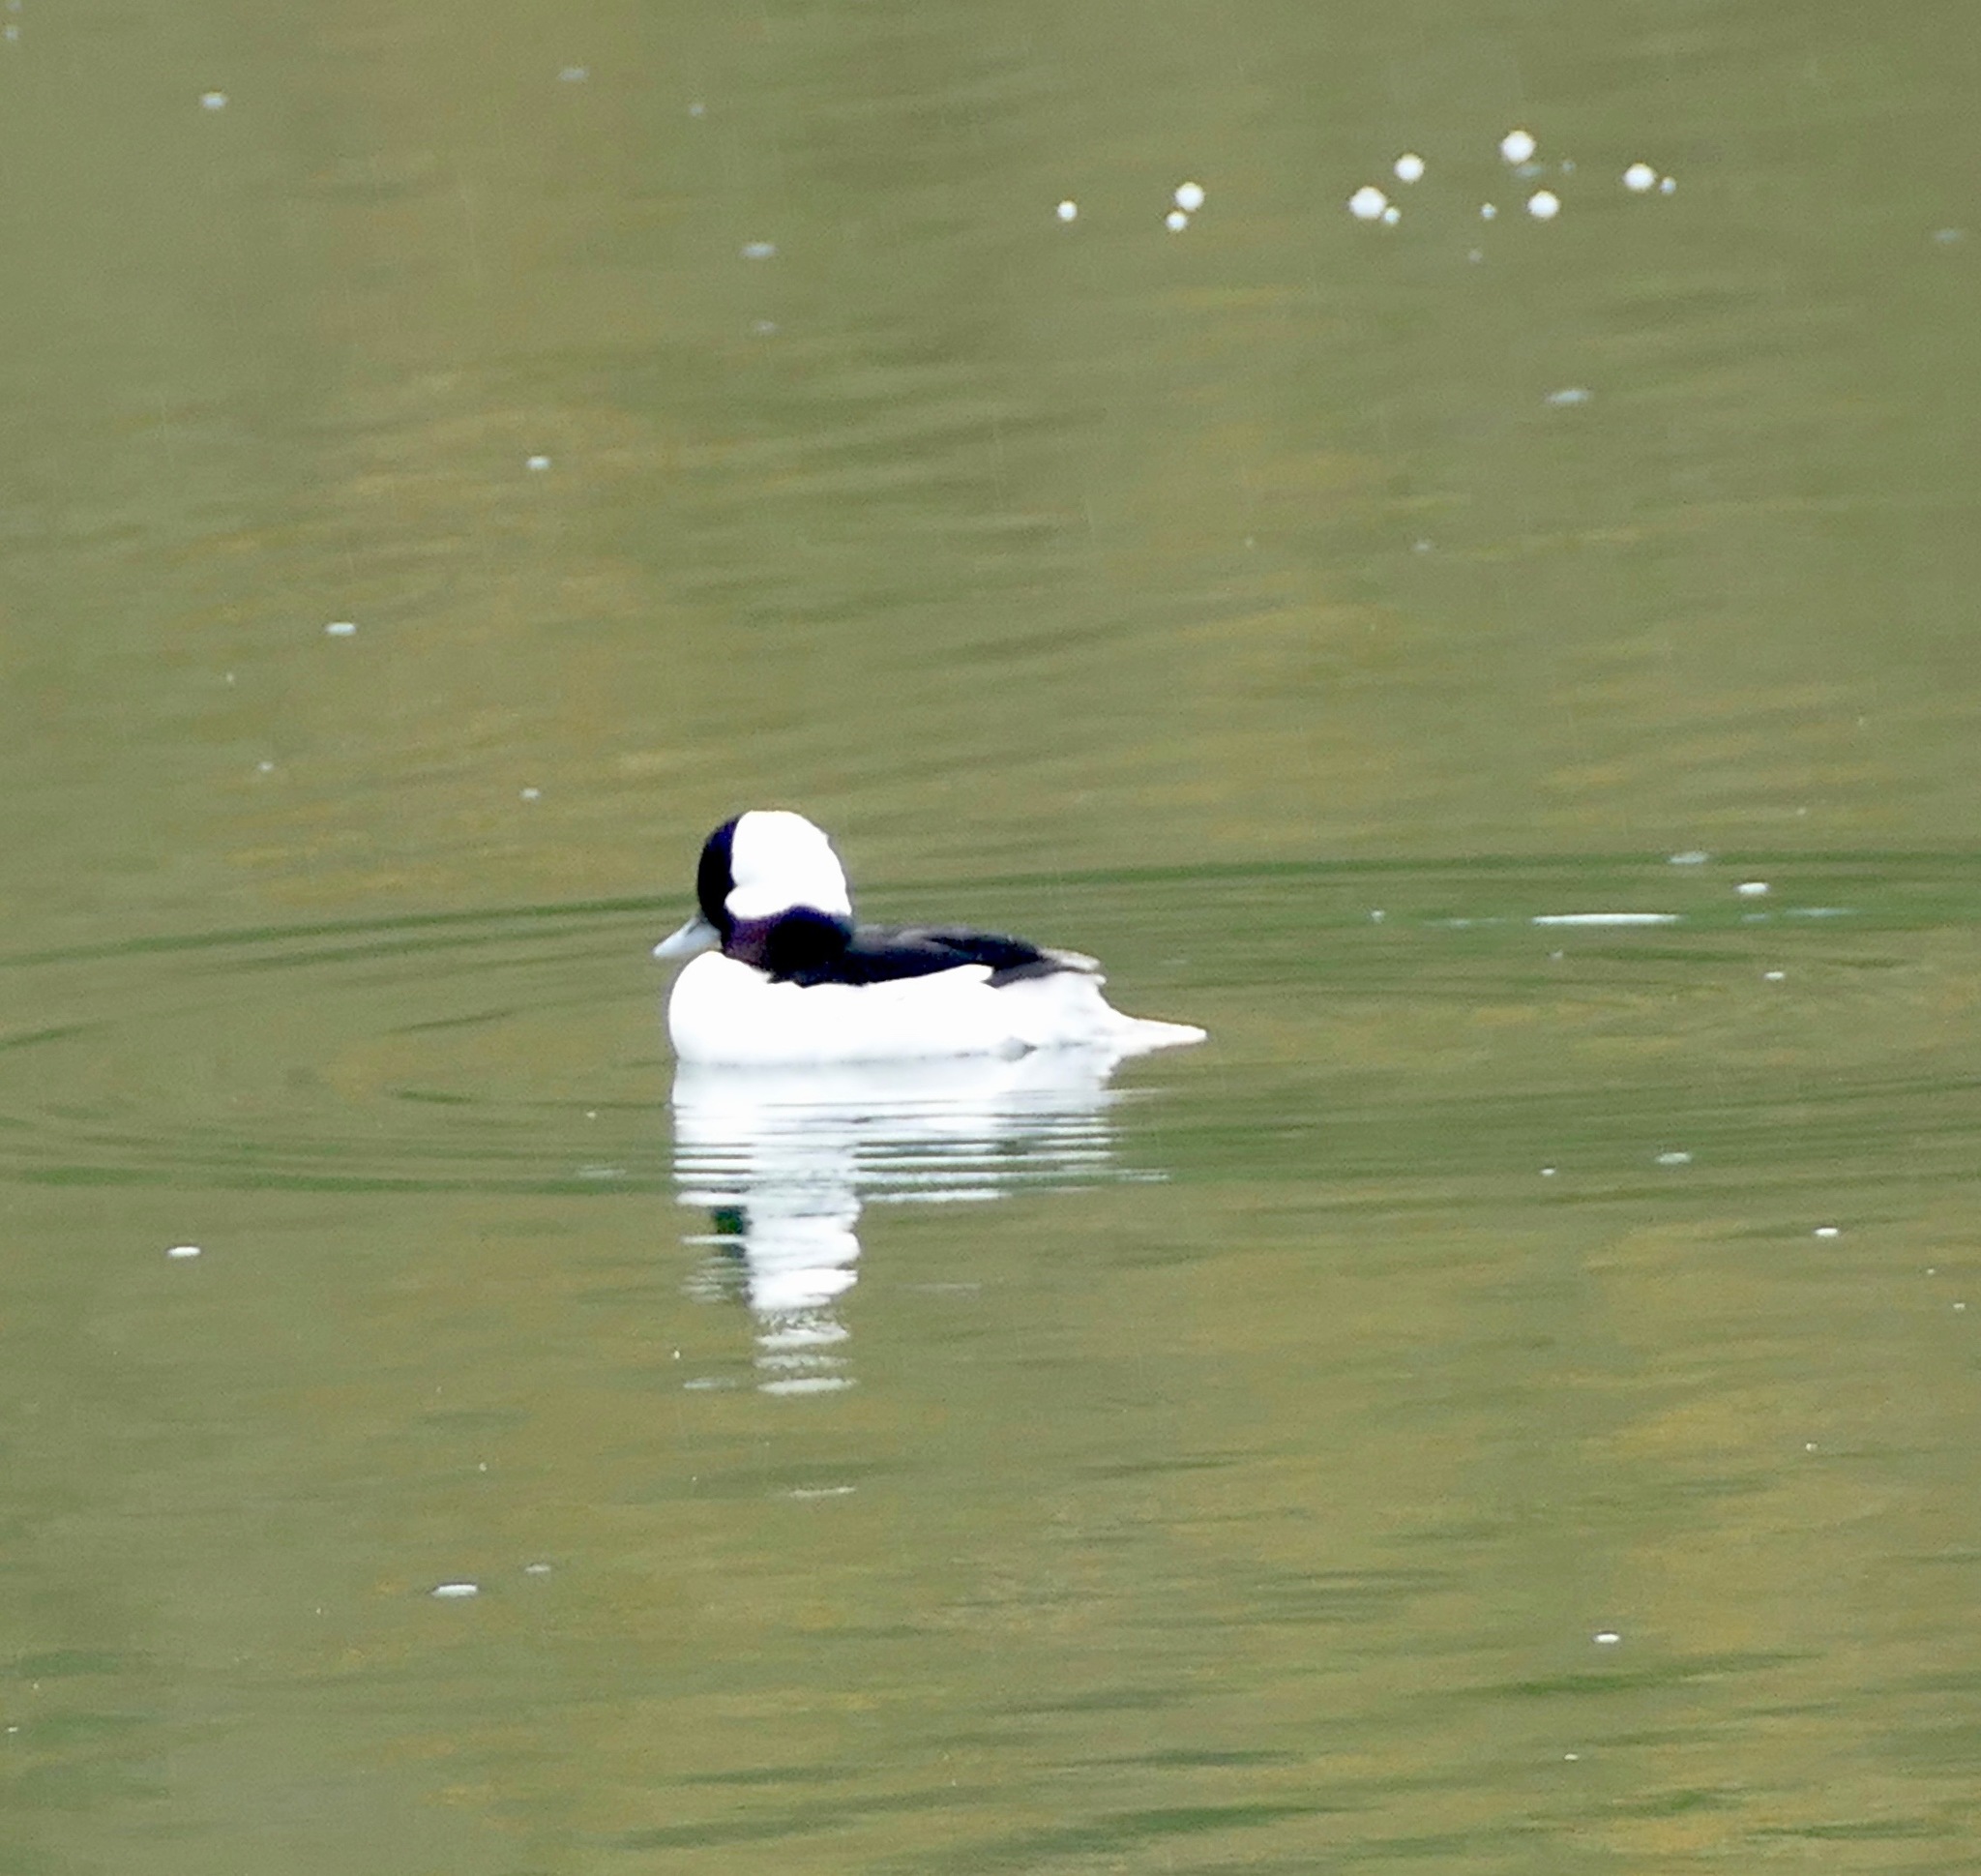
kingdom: Animalia
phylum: Chordata
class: Aves
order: Anseriformes
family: Anatidae
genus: Bucephala
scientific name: Bucephala albeola
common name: Bufflehead
